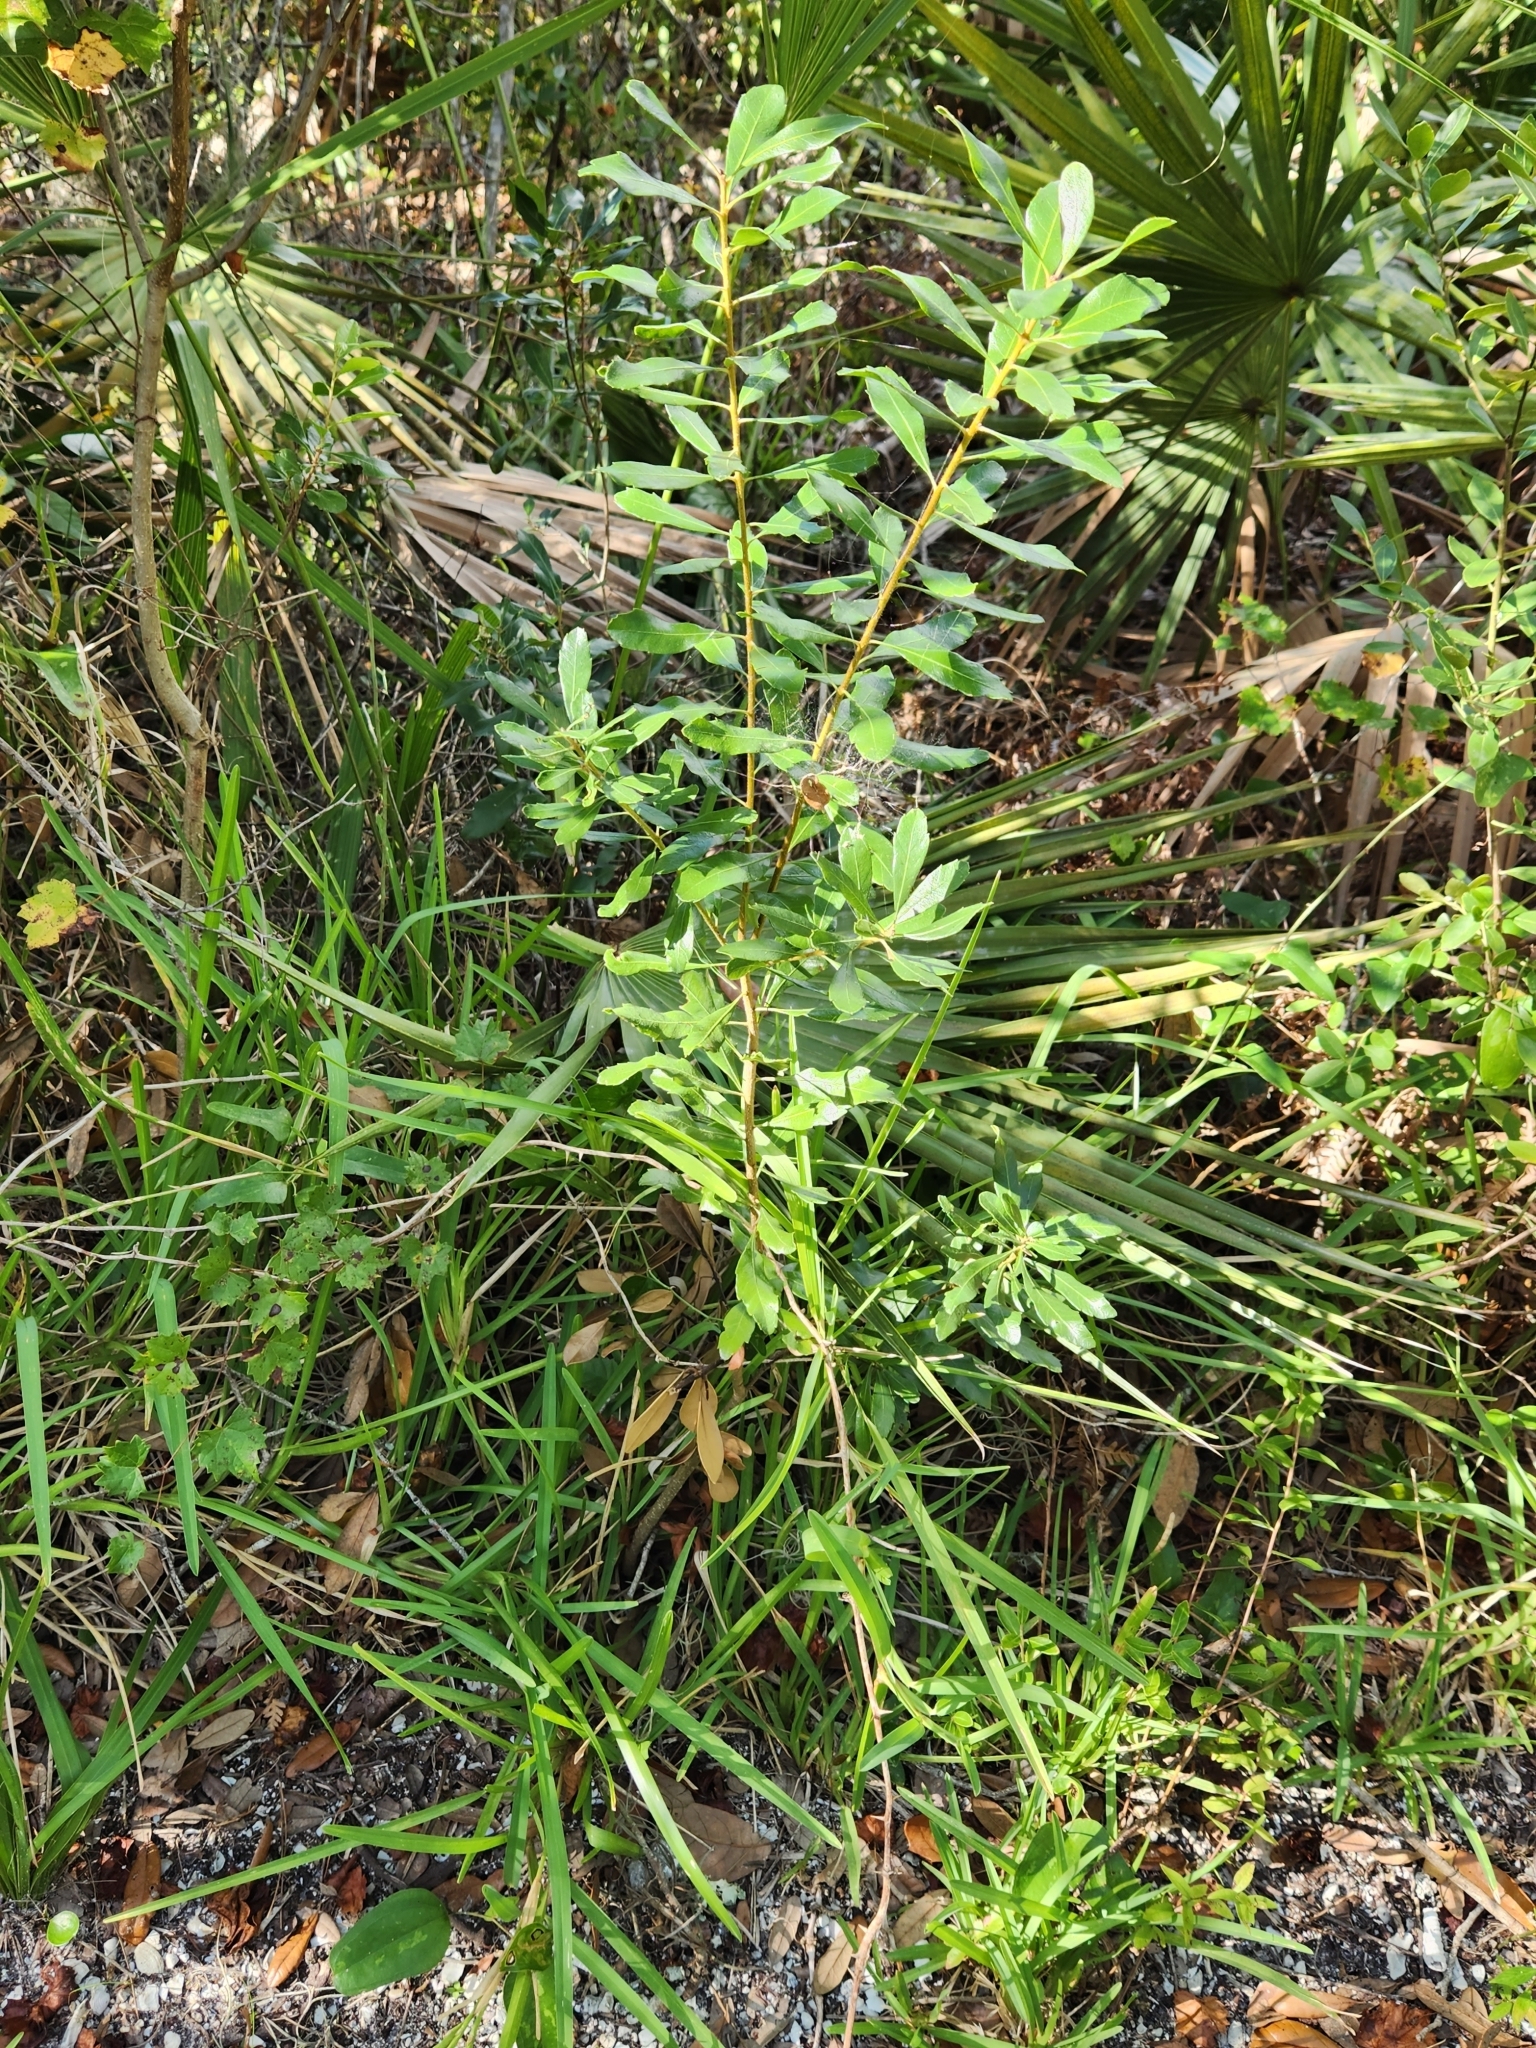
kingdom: Plantae
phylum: Tracheophyta
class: Magnoliopsida
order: Fagales
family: Myricaceae
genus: Morella
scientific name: Morella cerifera
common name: Wax myrtle
